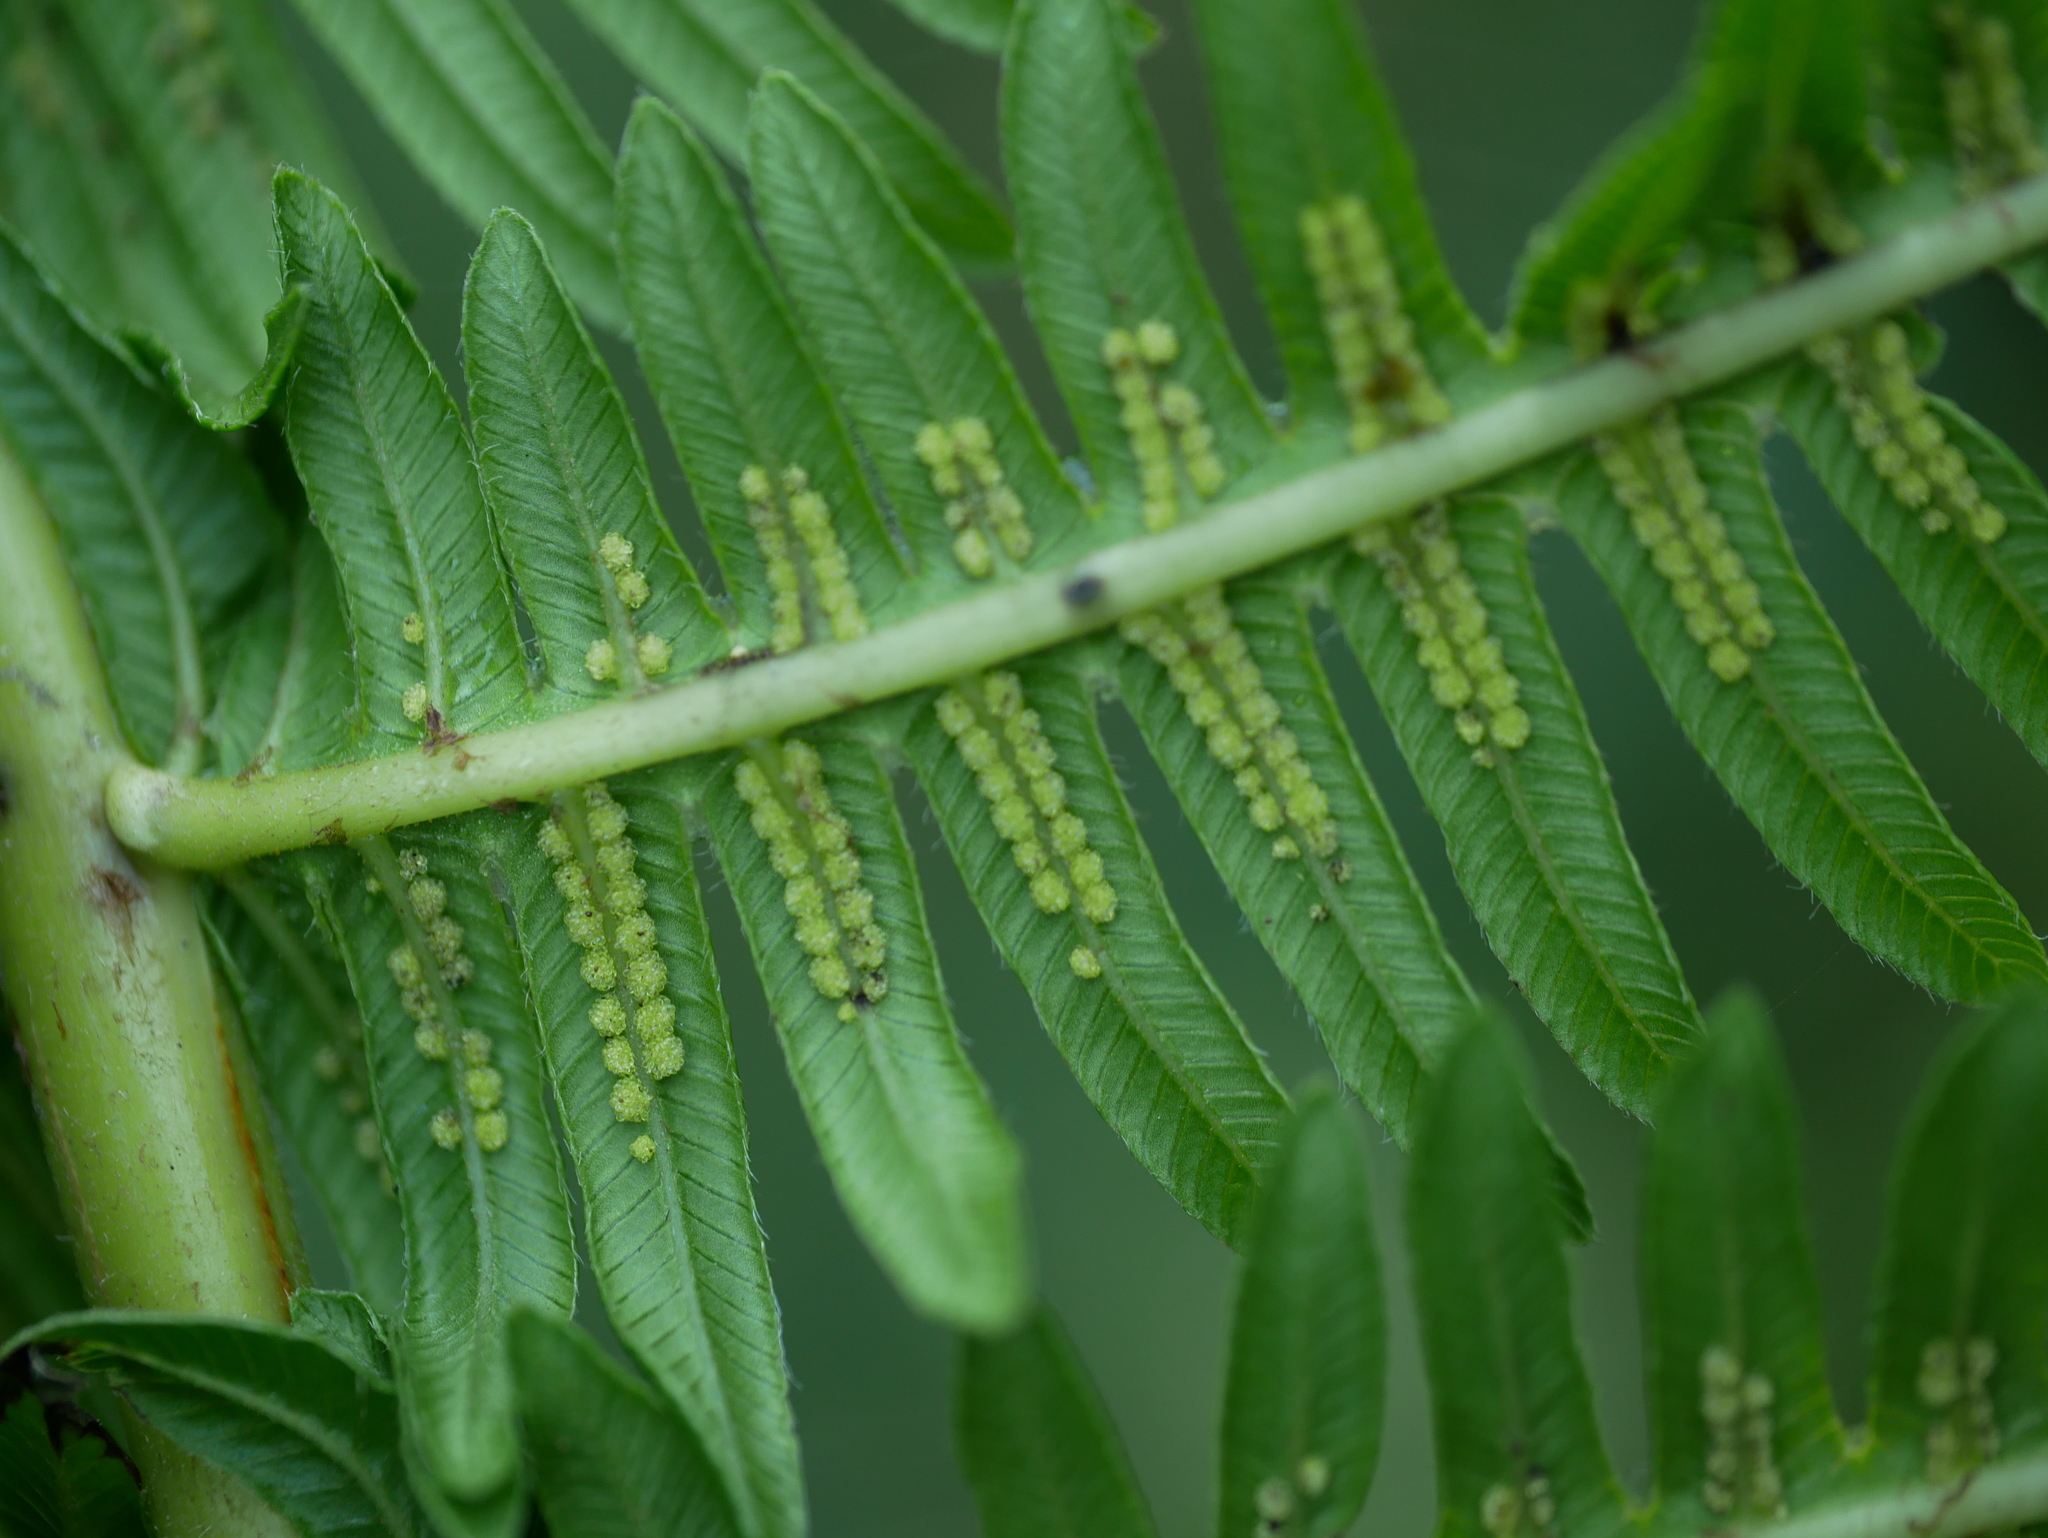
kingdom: Plantae
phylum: Tracheophyta
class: Polypodiopsida
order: Polypodiales
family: Thelypteridaceae
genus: Glaphyropteridopsis
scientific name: Glaphyropteridopsis erubescens
